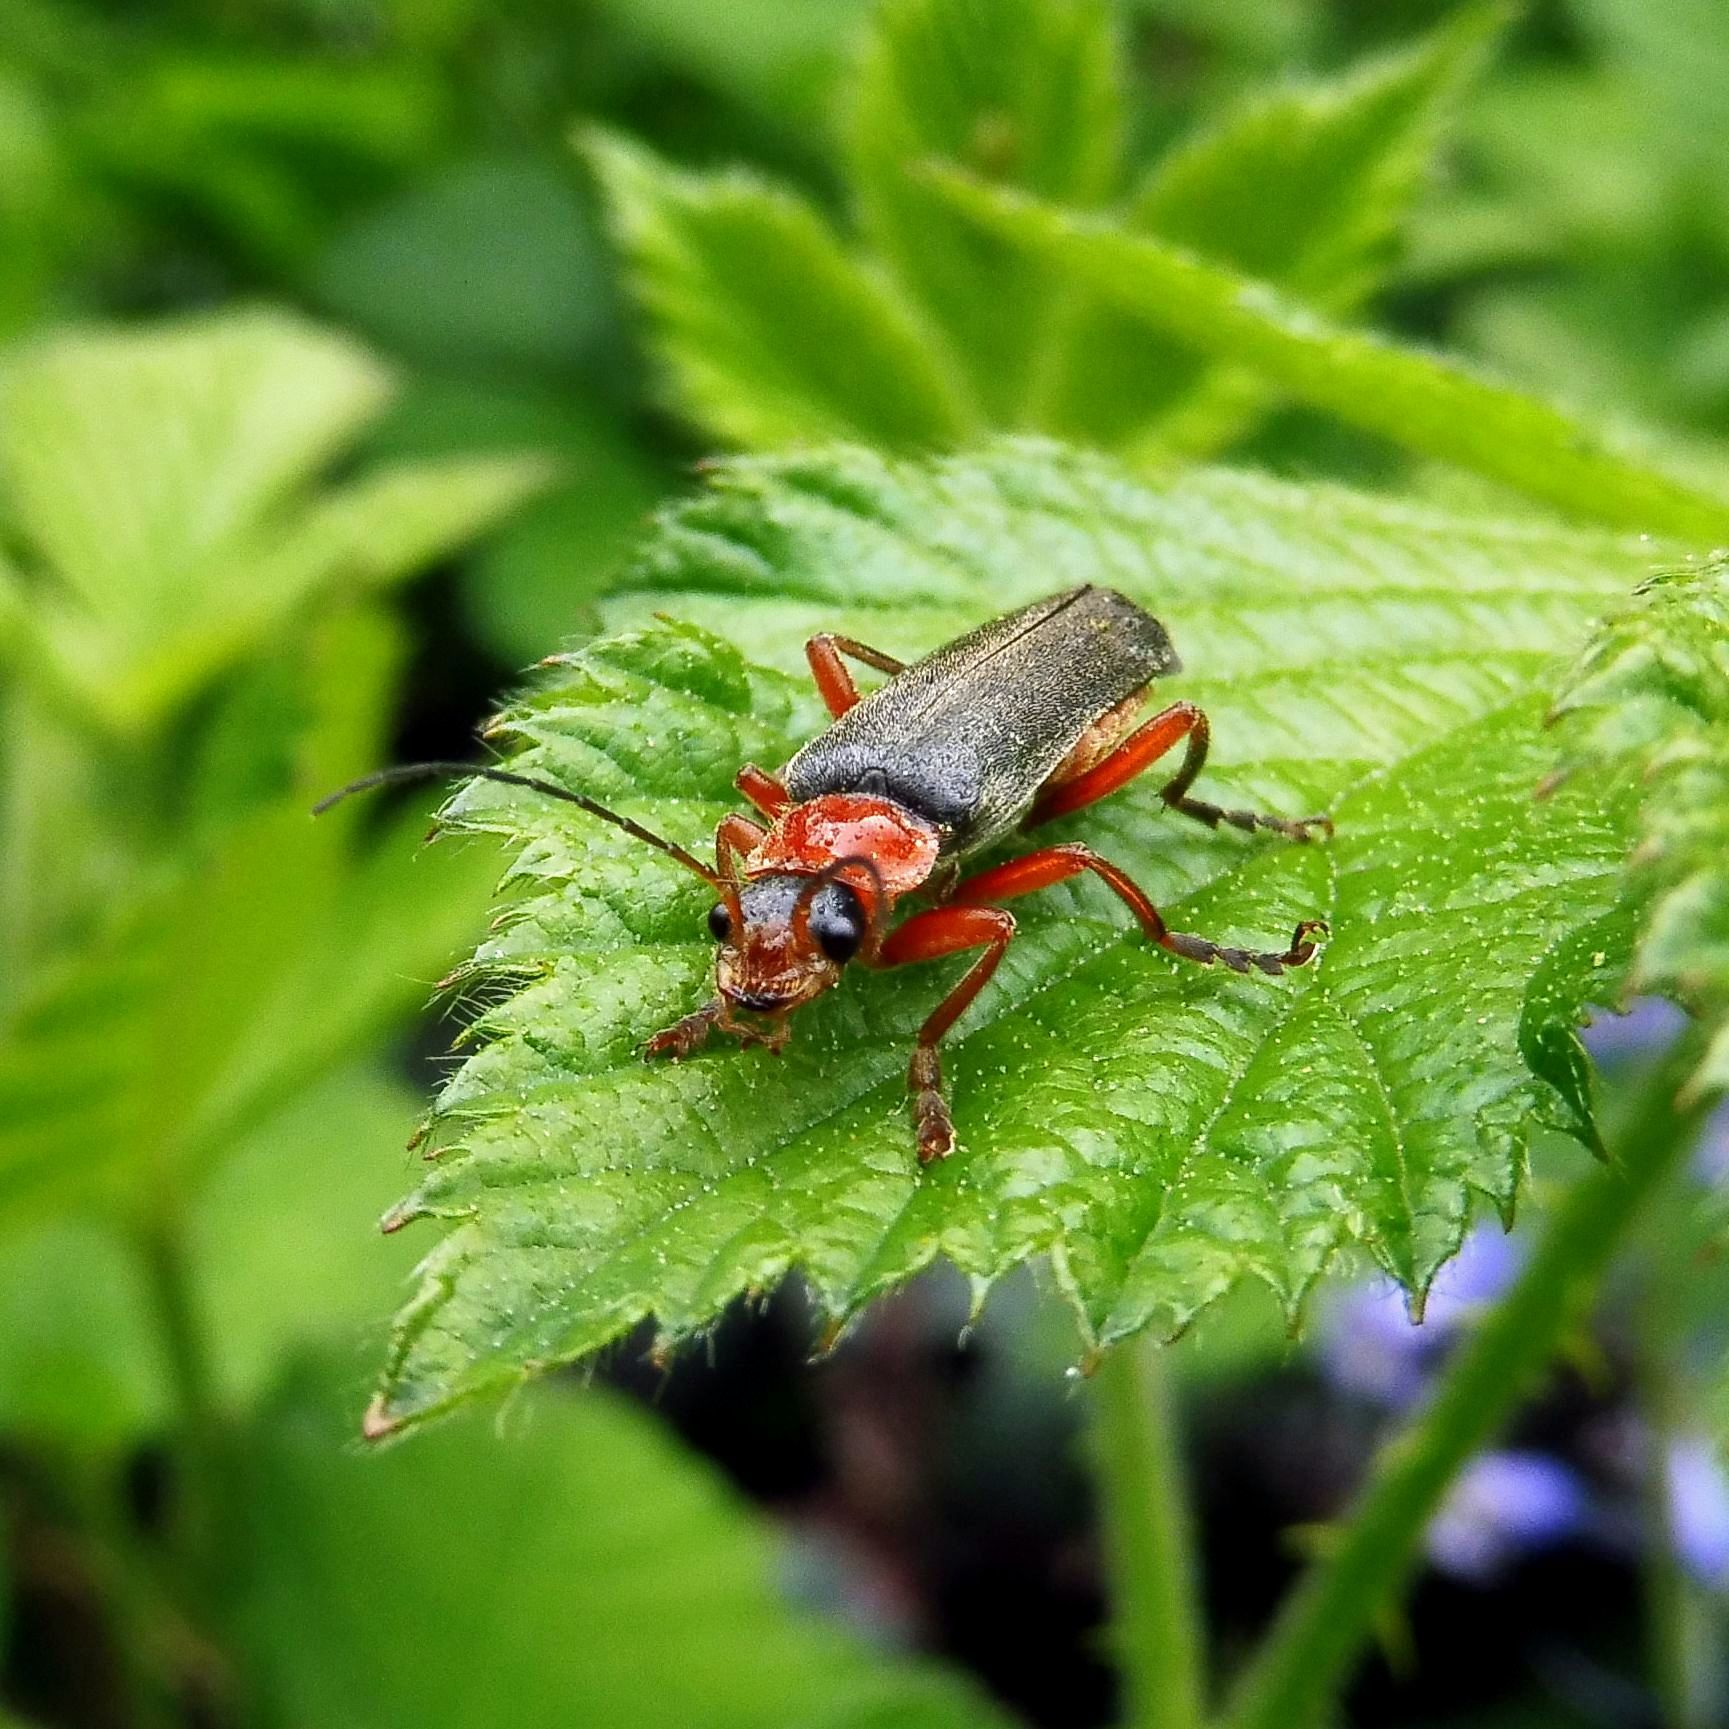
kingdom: Animalia
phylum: Arthropoda
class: Insecta
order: Coleoptera
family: Cantharidae
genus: Cantharis
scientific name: Cantharis pellucida
